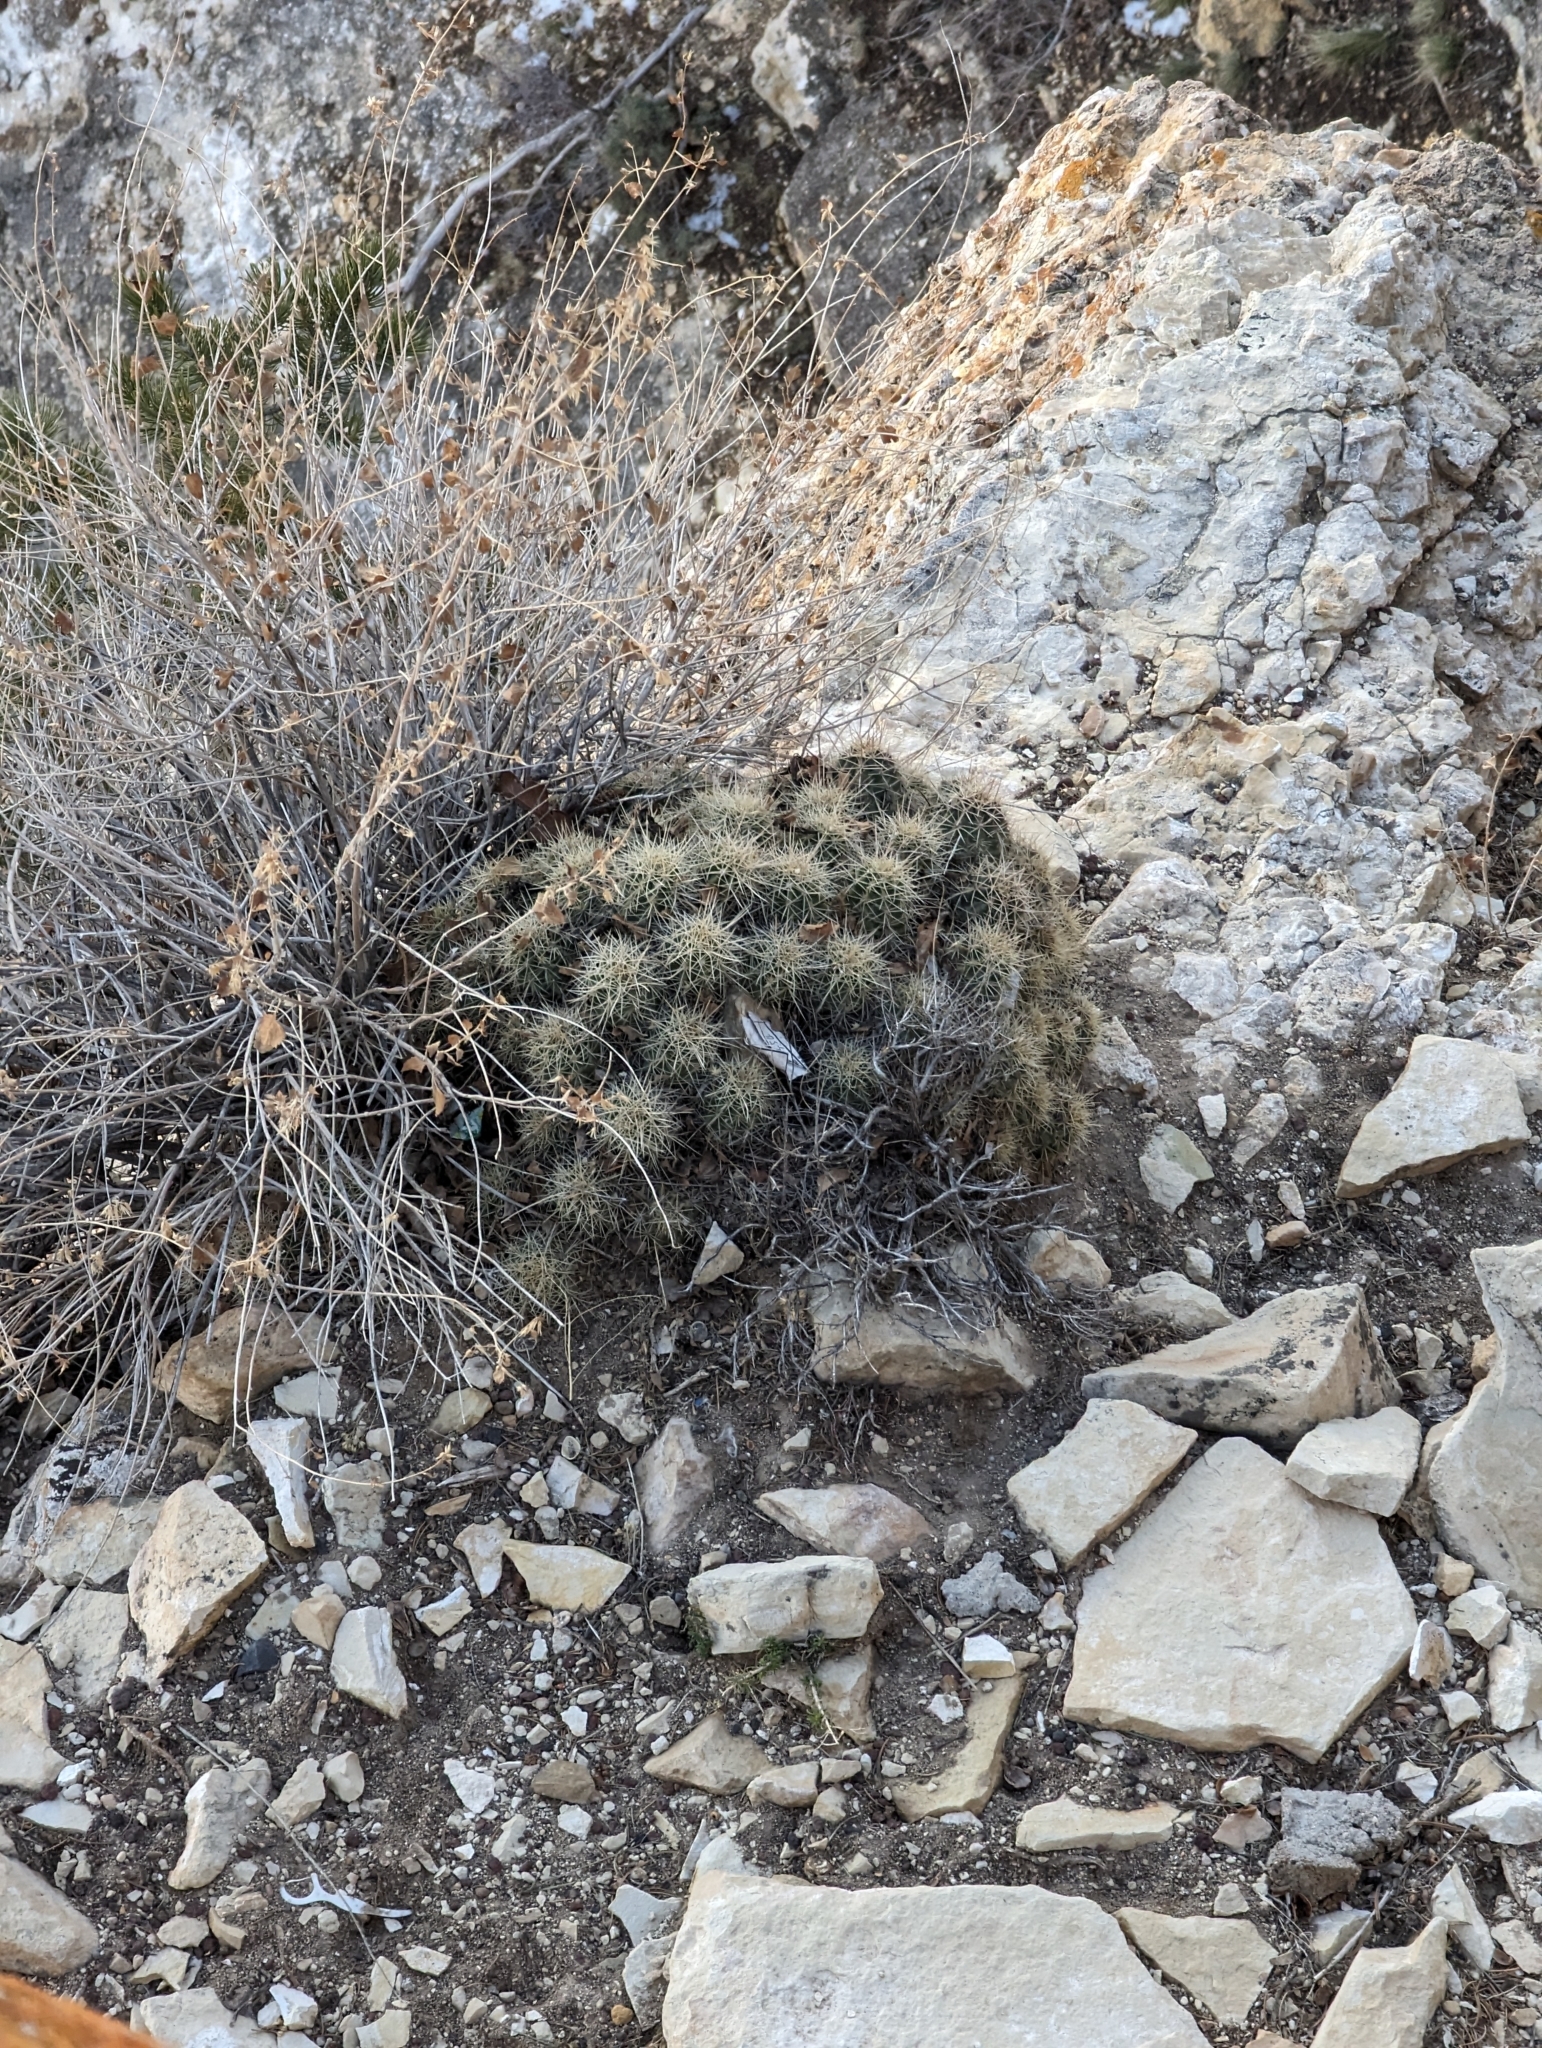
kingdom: Plantae
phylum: Tracheophyta
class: Magnoliopsida
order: Caryophyllales
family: Cactaceae
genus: Echinocereus
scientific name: Echinocereus triglochidiatus
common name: Claretcup hedgehog
